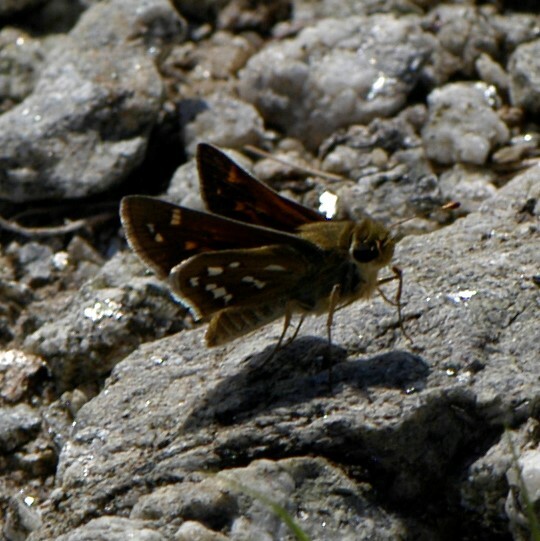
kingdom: Animalia
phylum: Arthropoda
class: Insecta
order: Lepidoptera
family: Hesperiidae
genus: Hesperia
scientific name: Hesperia pahaska
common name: Pahaska skipper
